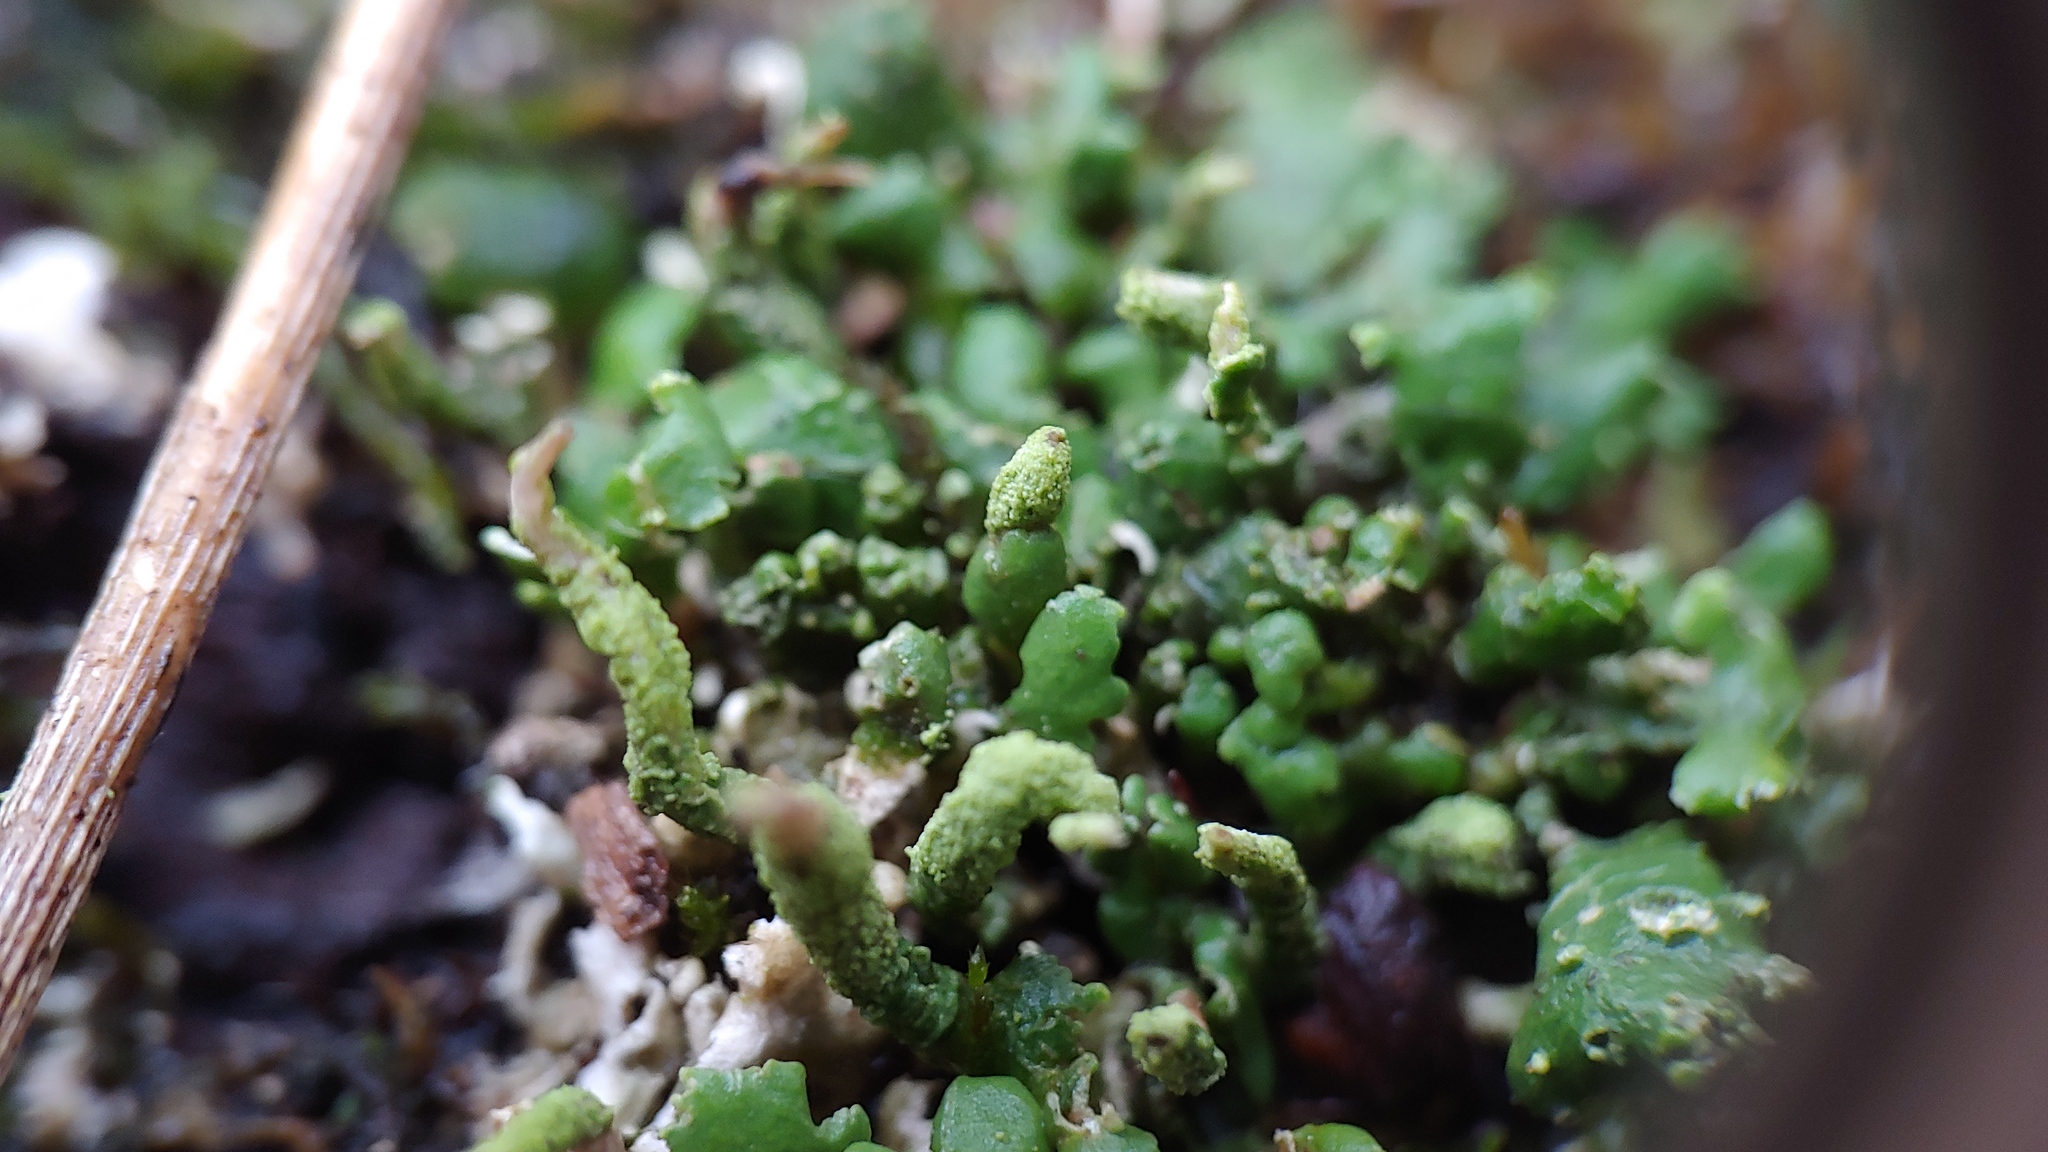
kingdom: Fungi
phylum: Ascomycota
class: Lecanoromycetes
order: Lecanorales
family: Cladoniaceae
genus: Cladonia
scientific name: Cladonia coniocraea
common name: Common powderhorn
